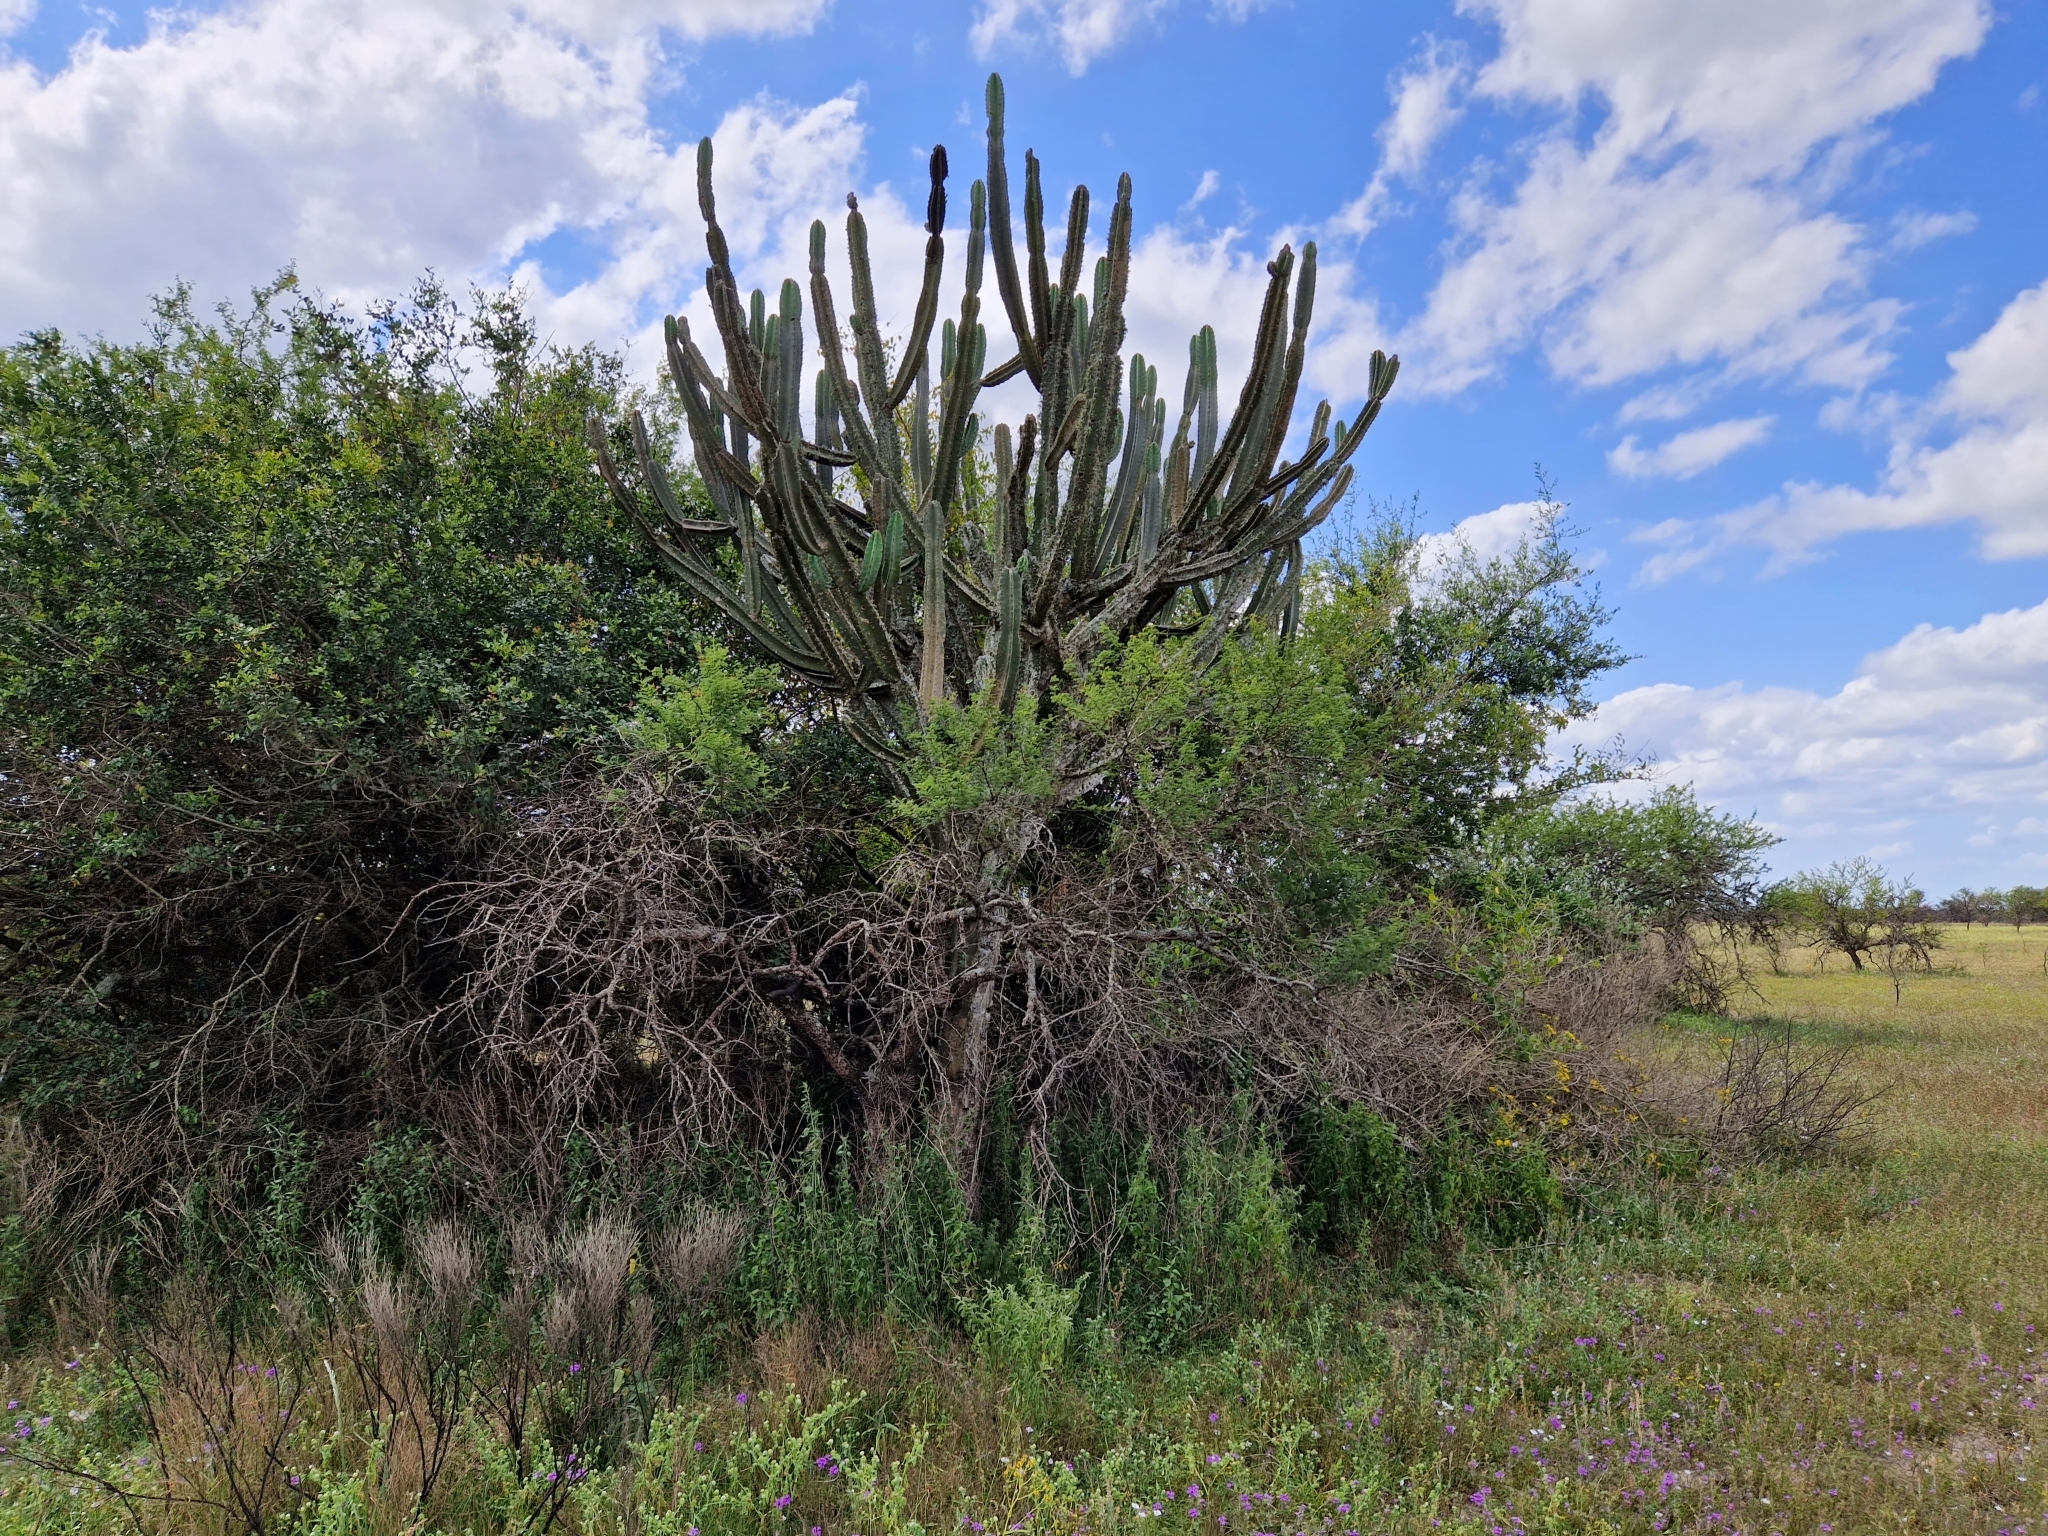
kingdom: Plantae
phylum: Tracheophyta
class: Magnoliopsida
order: Caryophyllales
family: Cactaceae
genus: Cereus
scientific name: Cereus stenogonus
